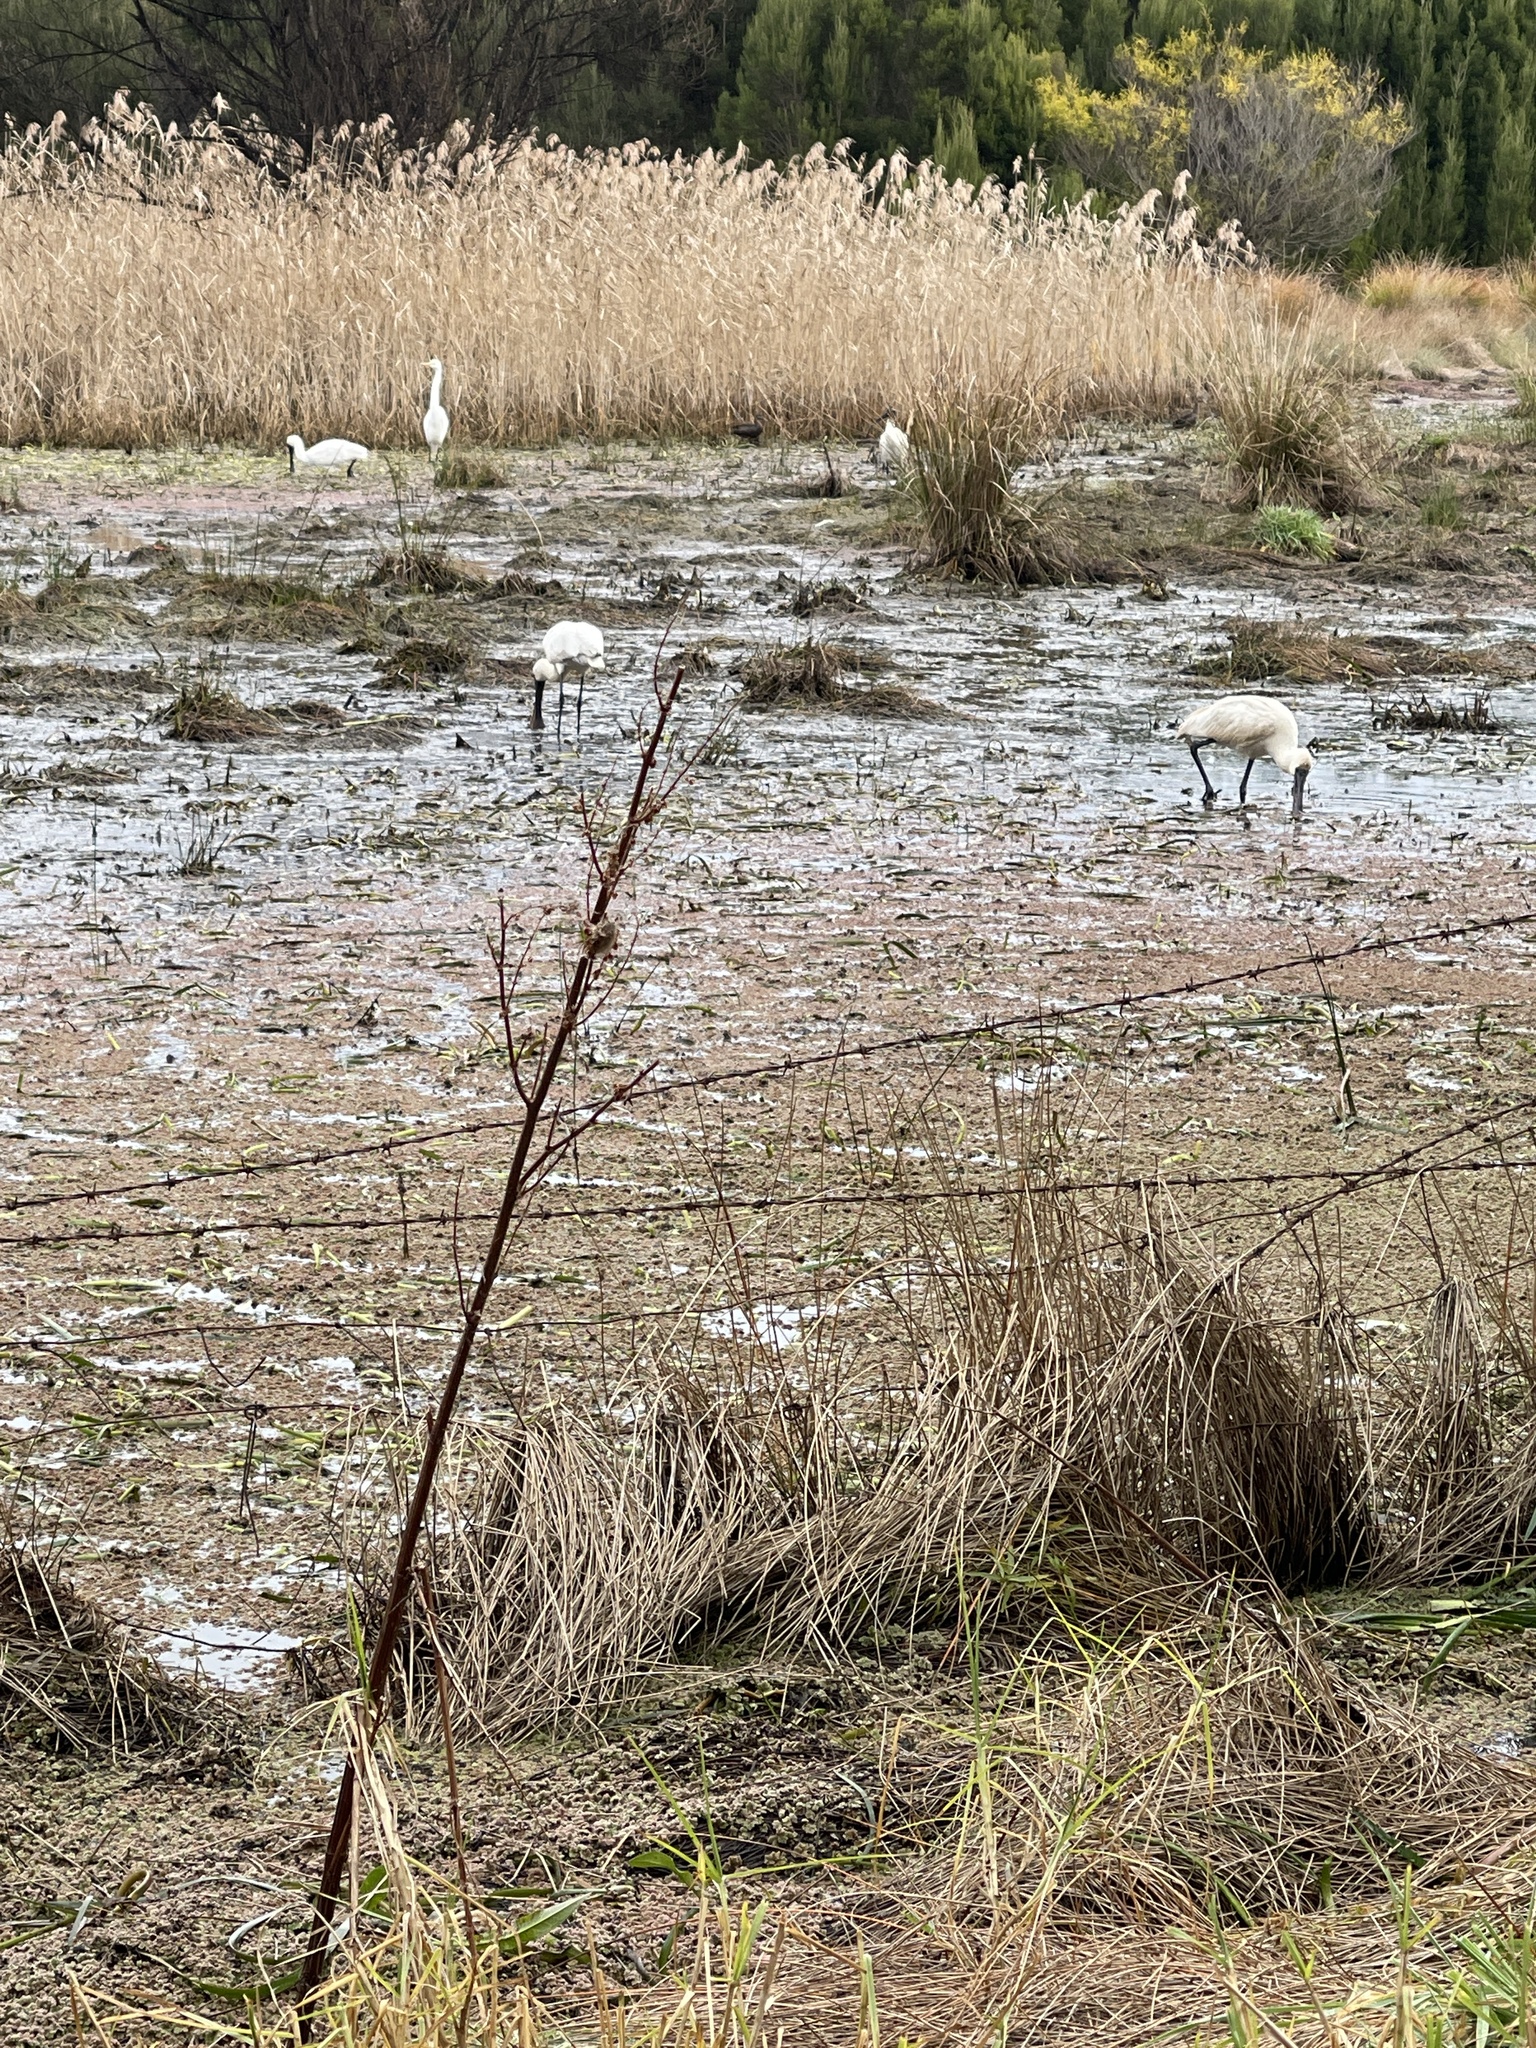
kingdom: Animalia
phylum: Chordata
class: Aves
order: Pelecaniformes
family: Threskiornithidae
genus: Platalea
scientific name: Platalea regia
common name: Royal spoonbill
